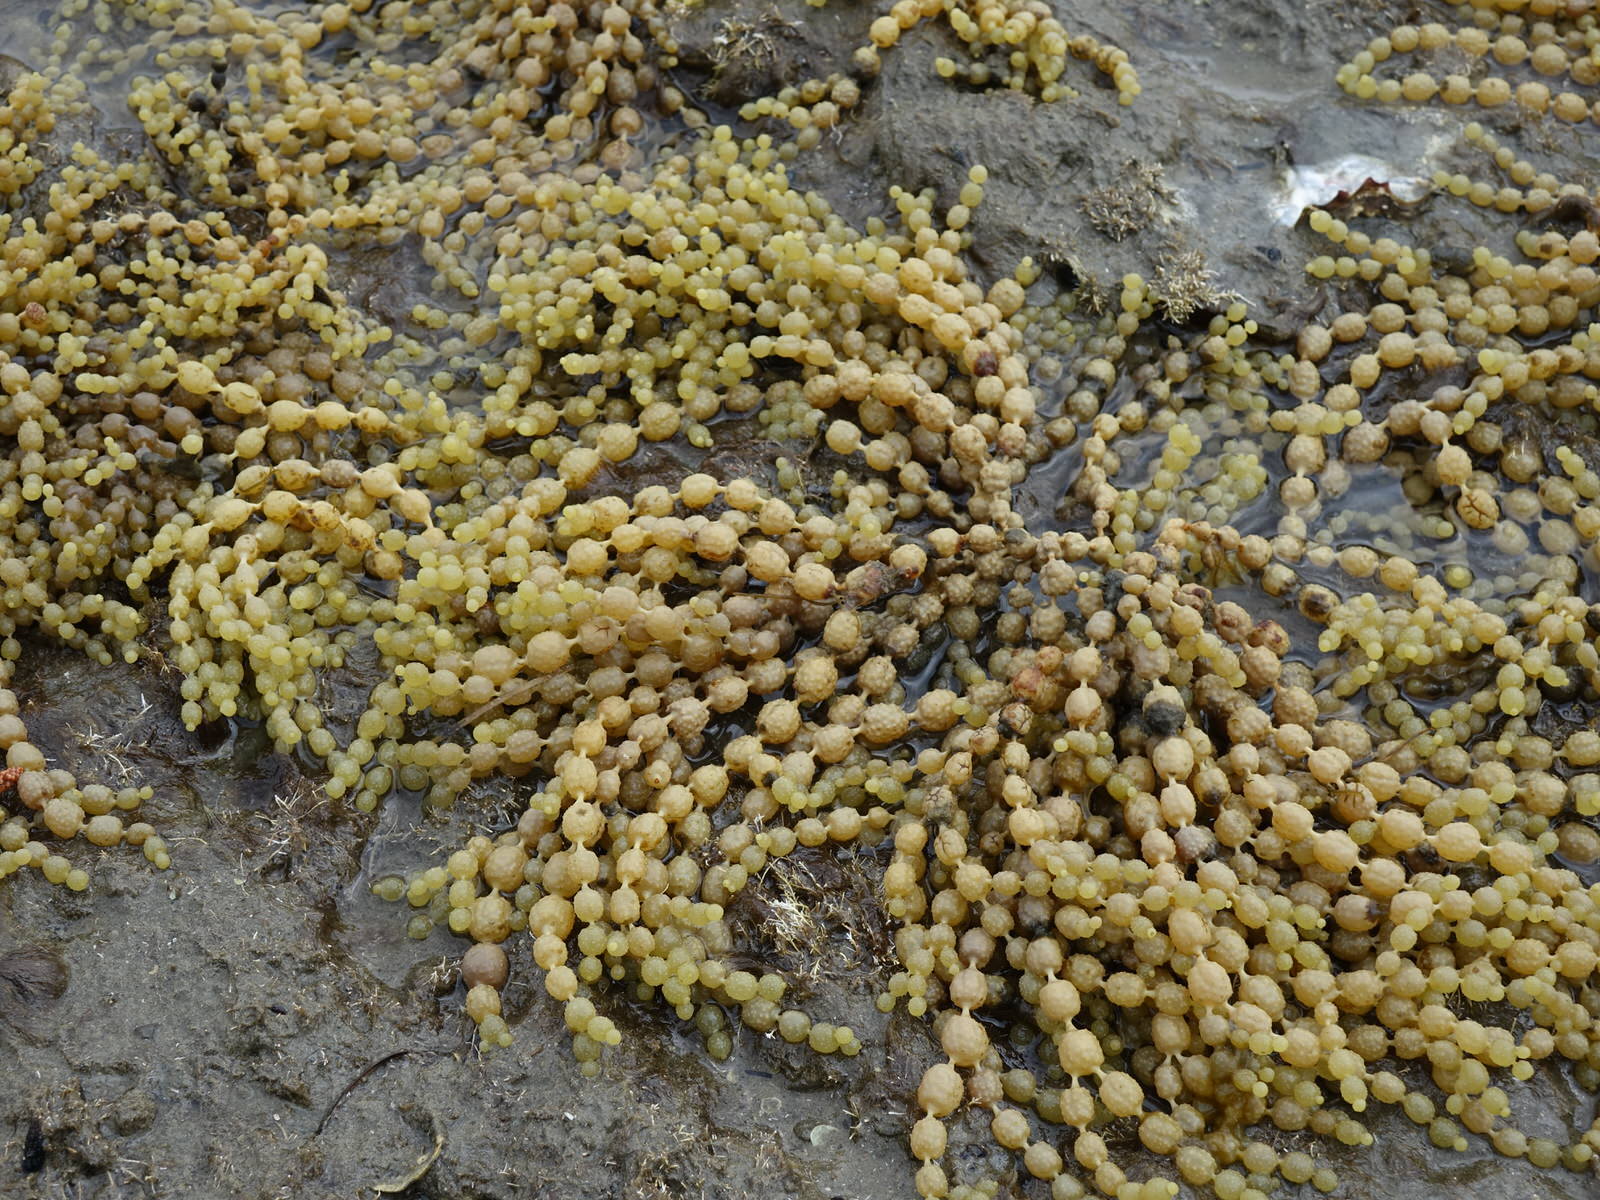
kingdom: Chromista
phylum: Ochrophyta
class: Phaeophyceae
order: Fucales
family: Hormosiraceae
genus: Hormosira
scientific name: Hormosira banksii
